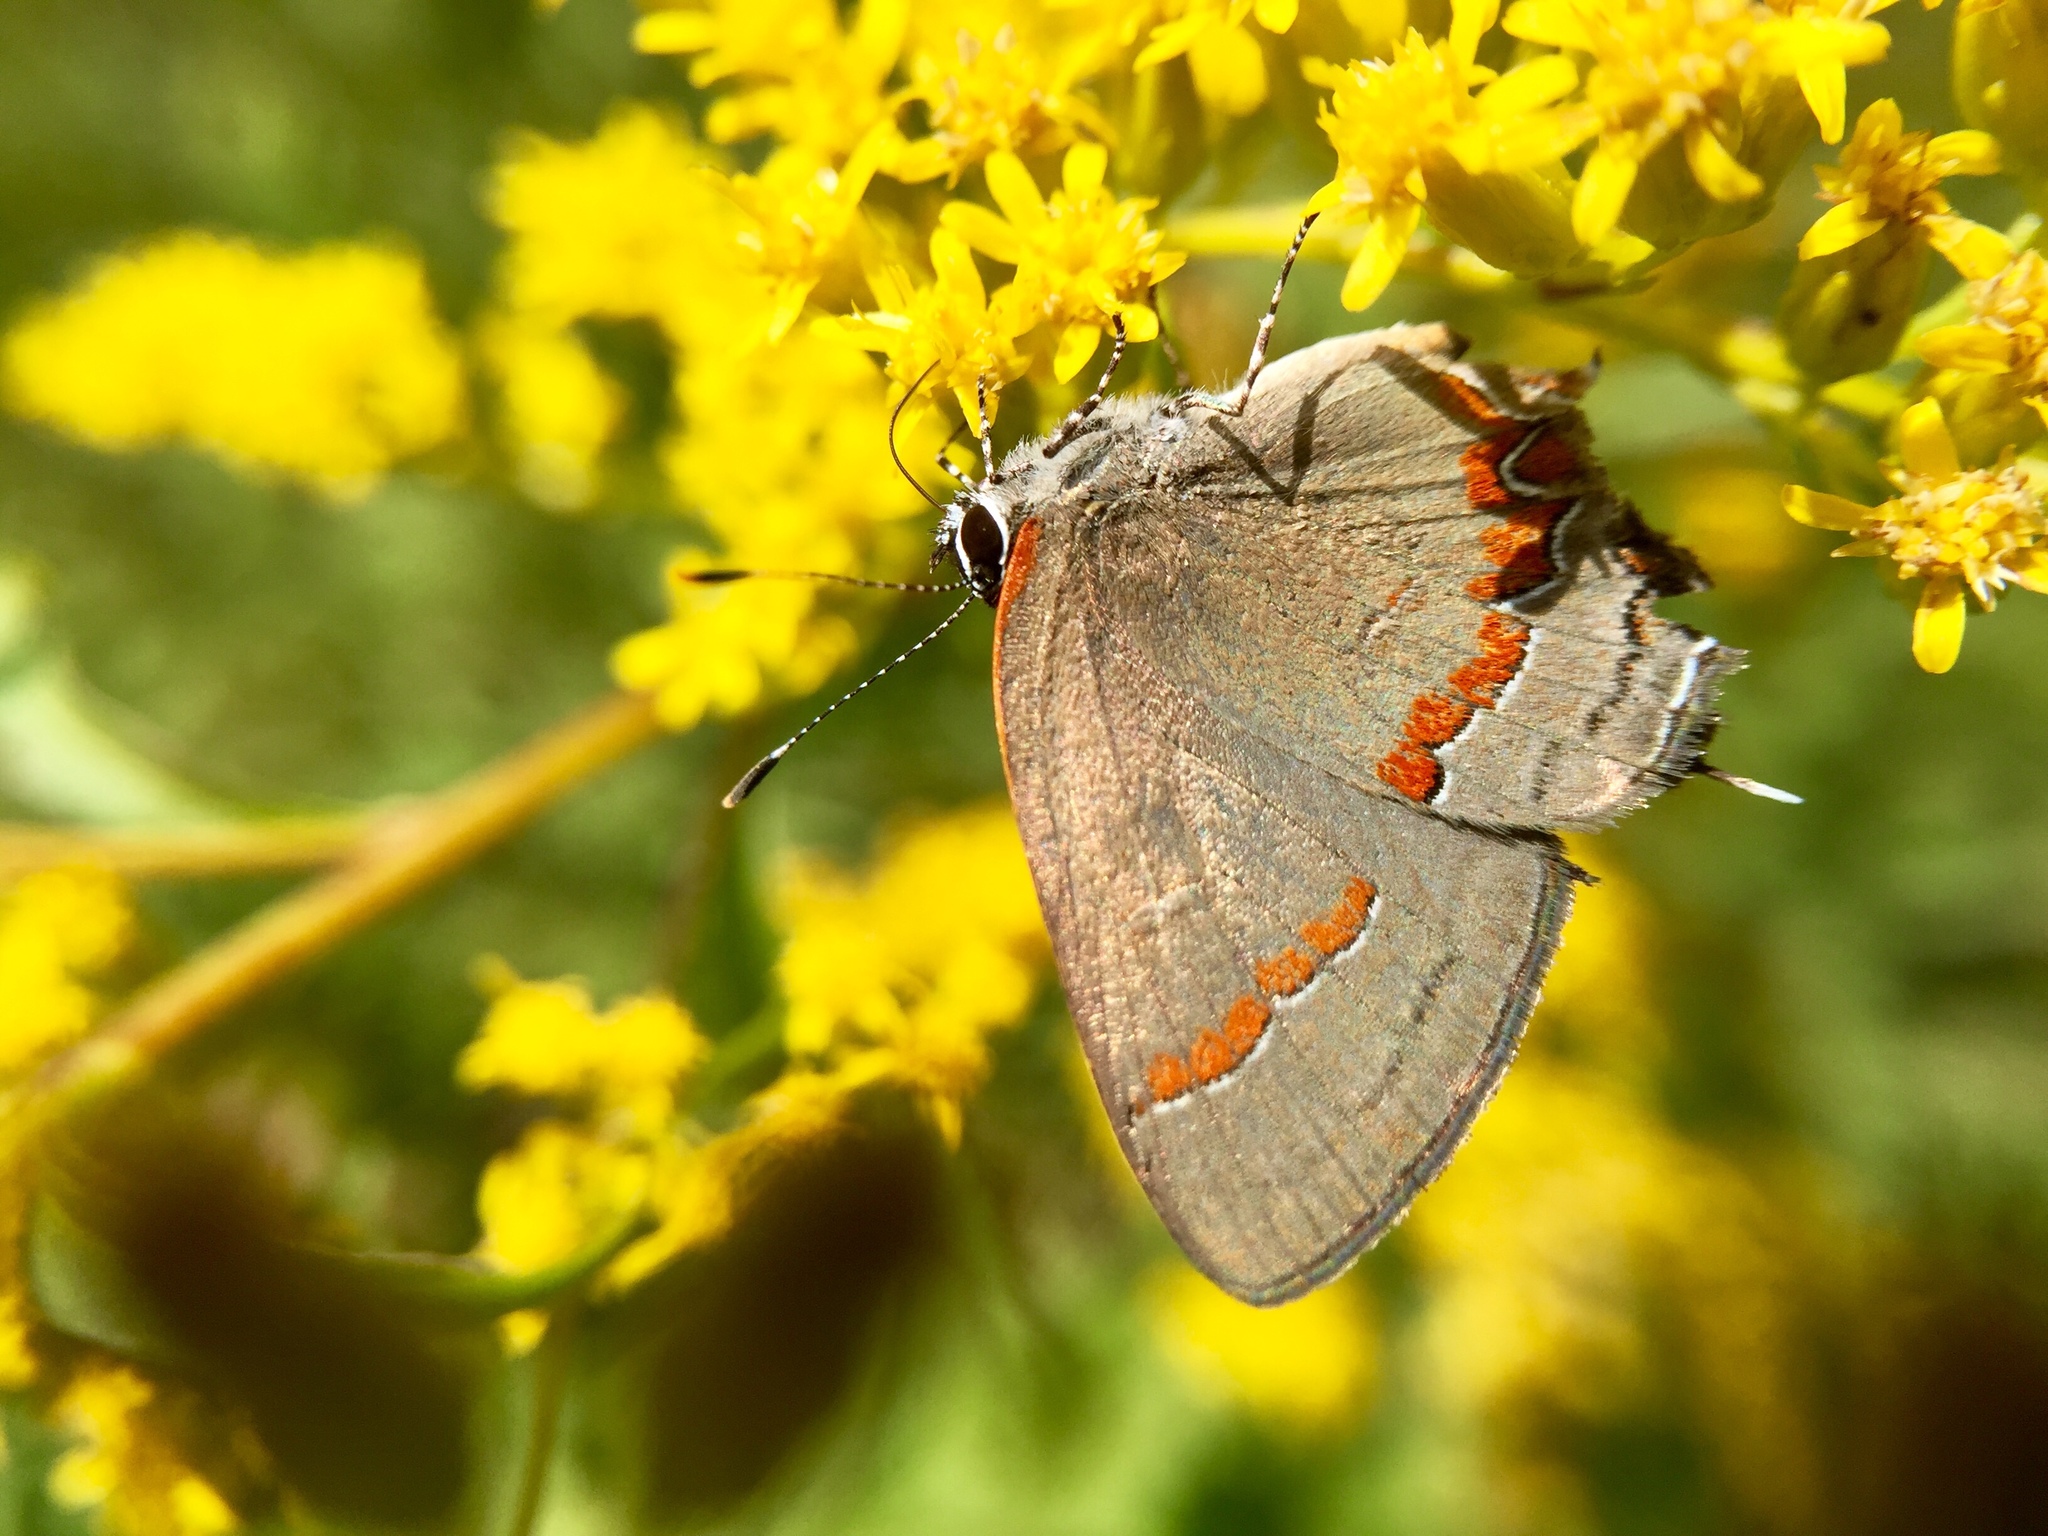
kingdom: Animalia
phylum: Arthropoda
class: Insecta
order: Lepidoptera
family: Lycaenidae
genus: Calycopis
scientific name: Calycopis cecrops
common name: Red-banded hairstreak
